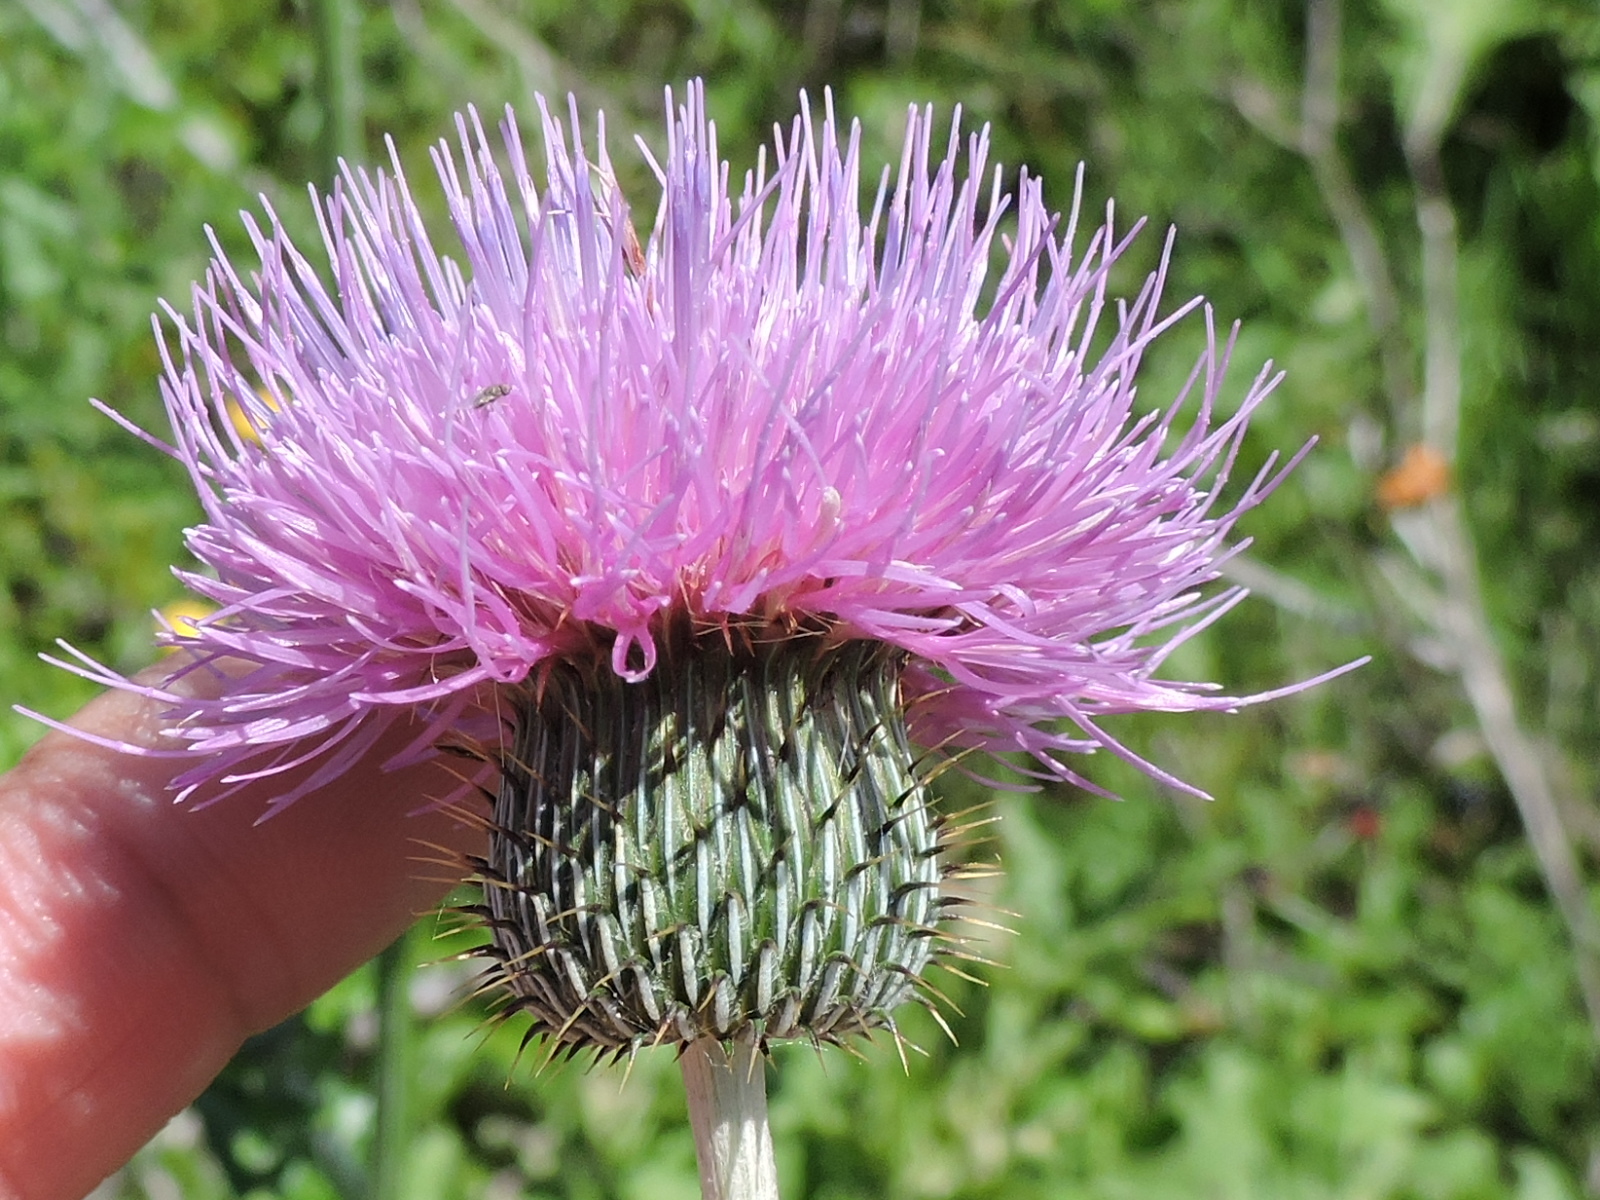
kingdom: Plantae
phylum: Tracheophyta
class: Magnoliopsida
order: Asterales
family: Asteraceae
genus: Cirsium
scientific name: Cirsium texanum
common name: Texas purple thistle
